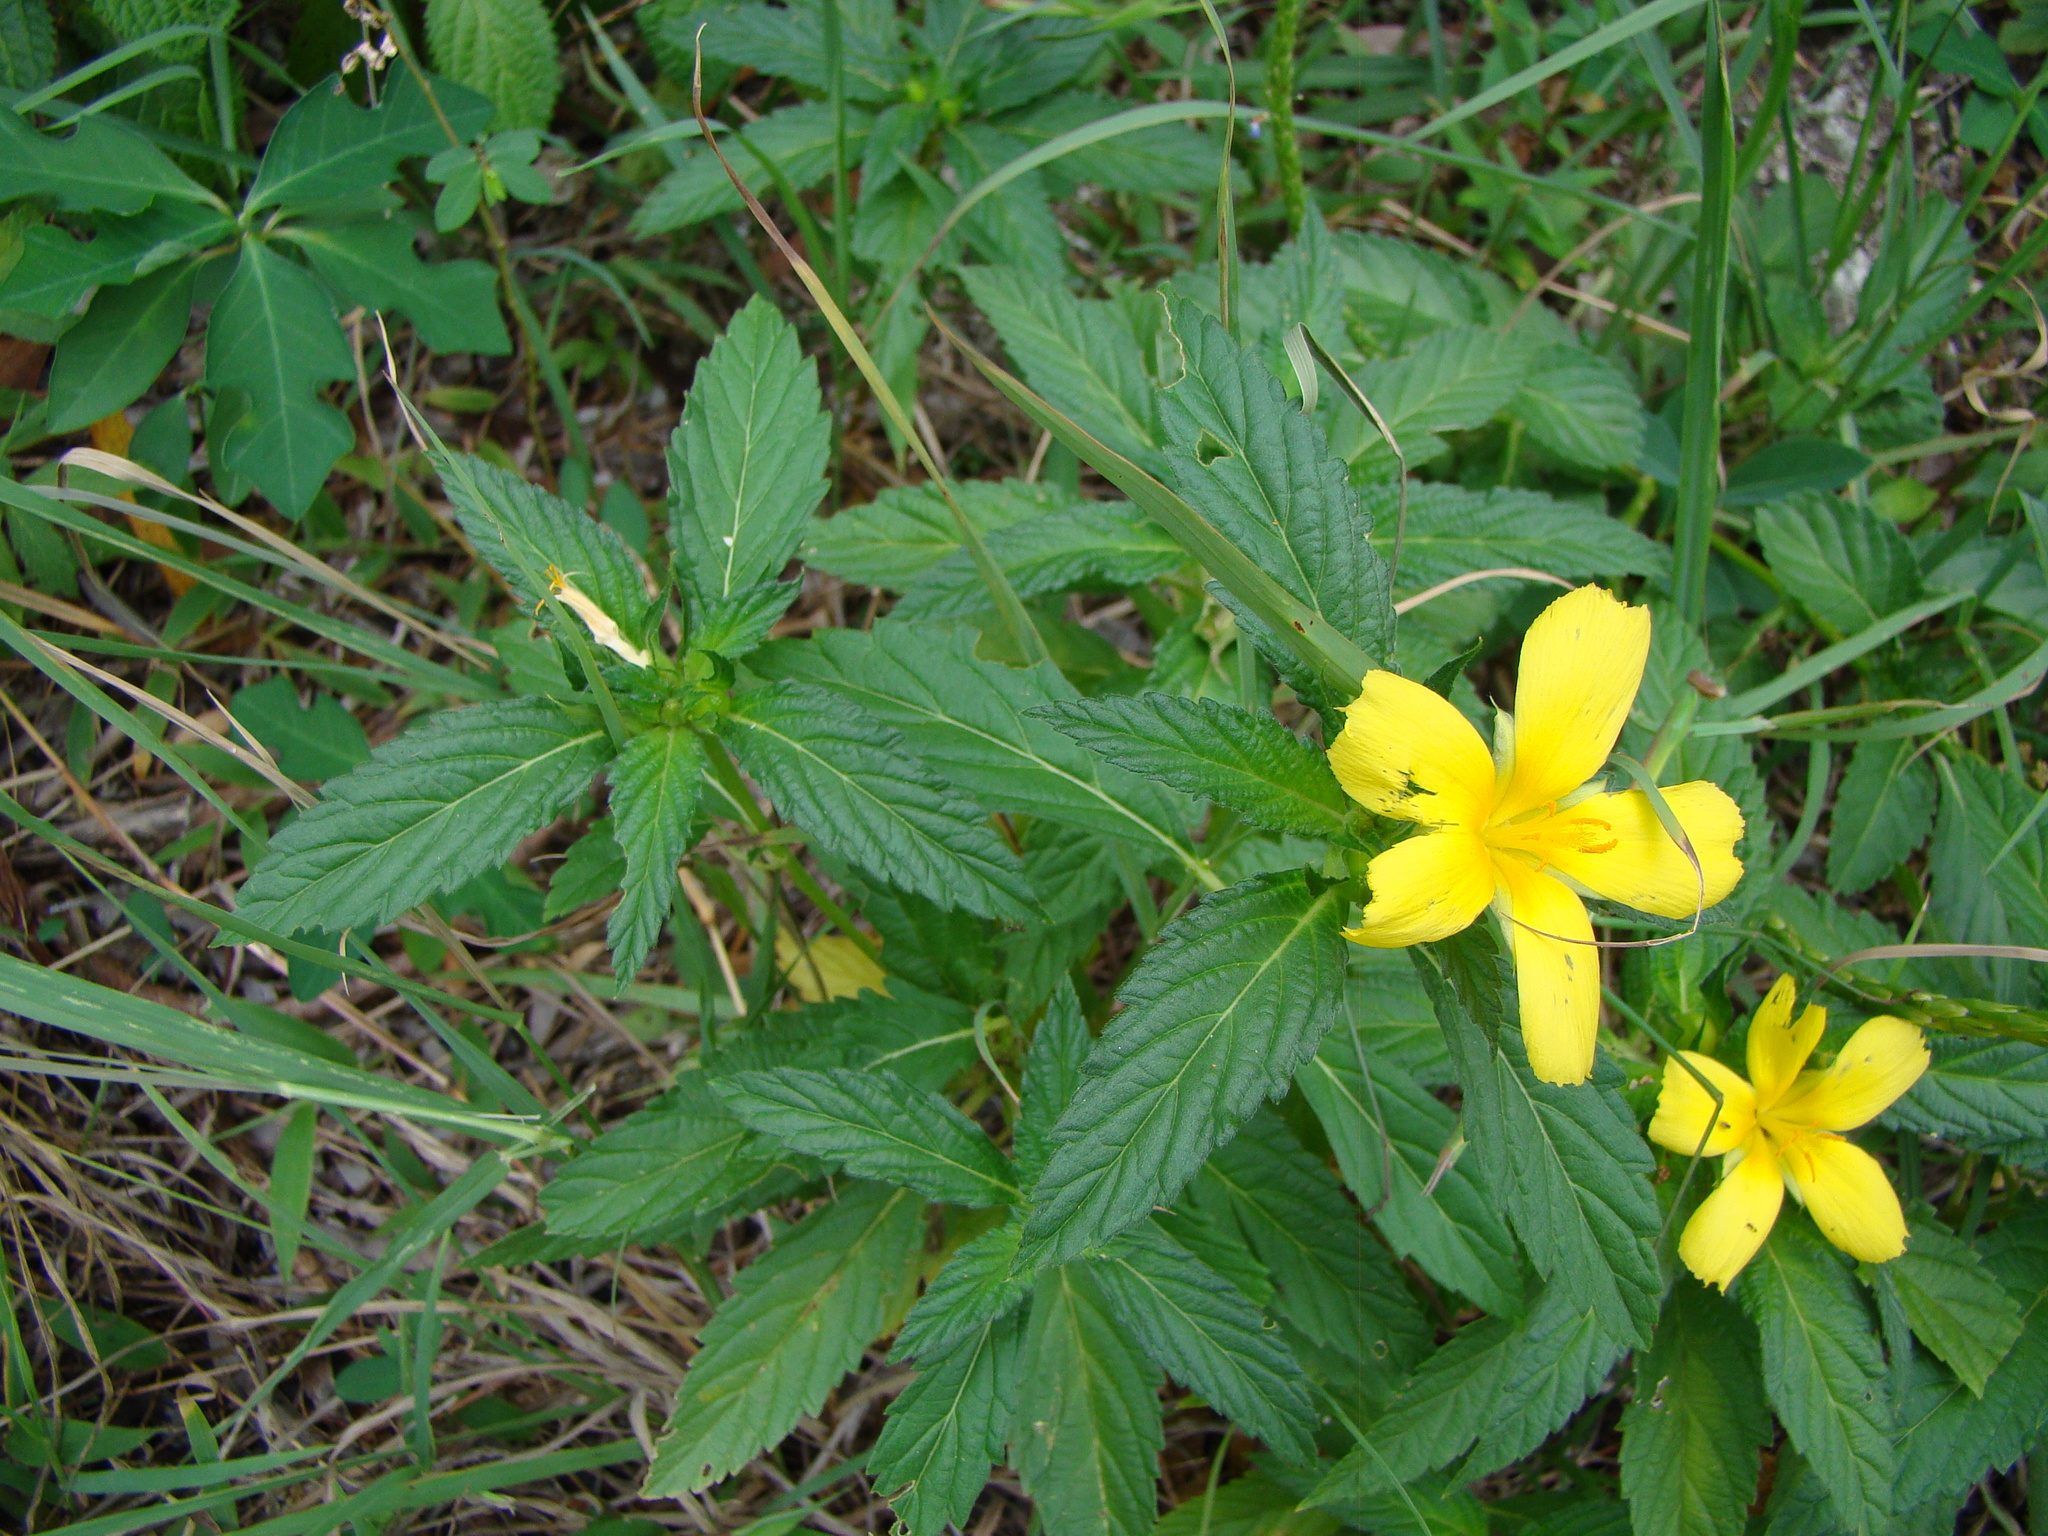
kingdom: Plantae
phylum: Tracheophyta
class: Magnoliopsida
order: Malpighiales
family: Turneraceae
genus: Turnera
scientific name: Turnera ulmifolia
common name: Ramgoat dashalong
